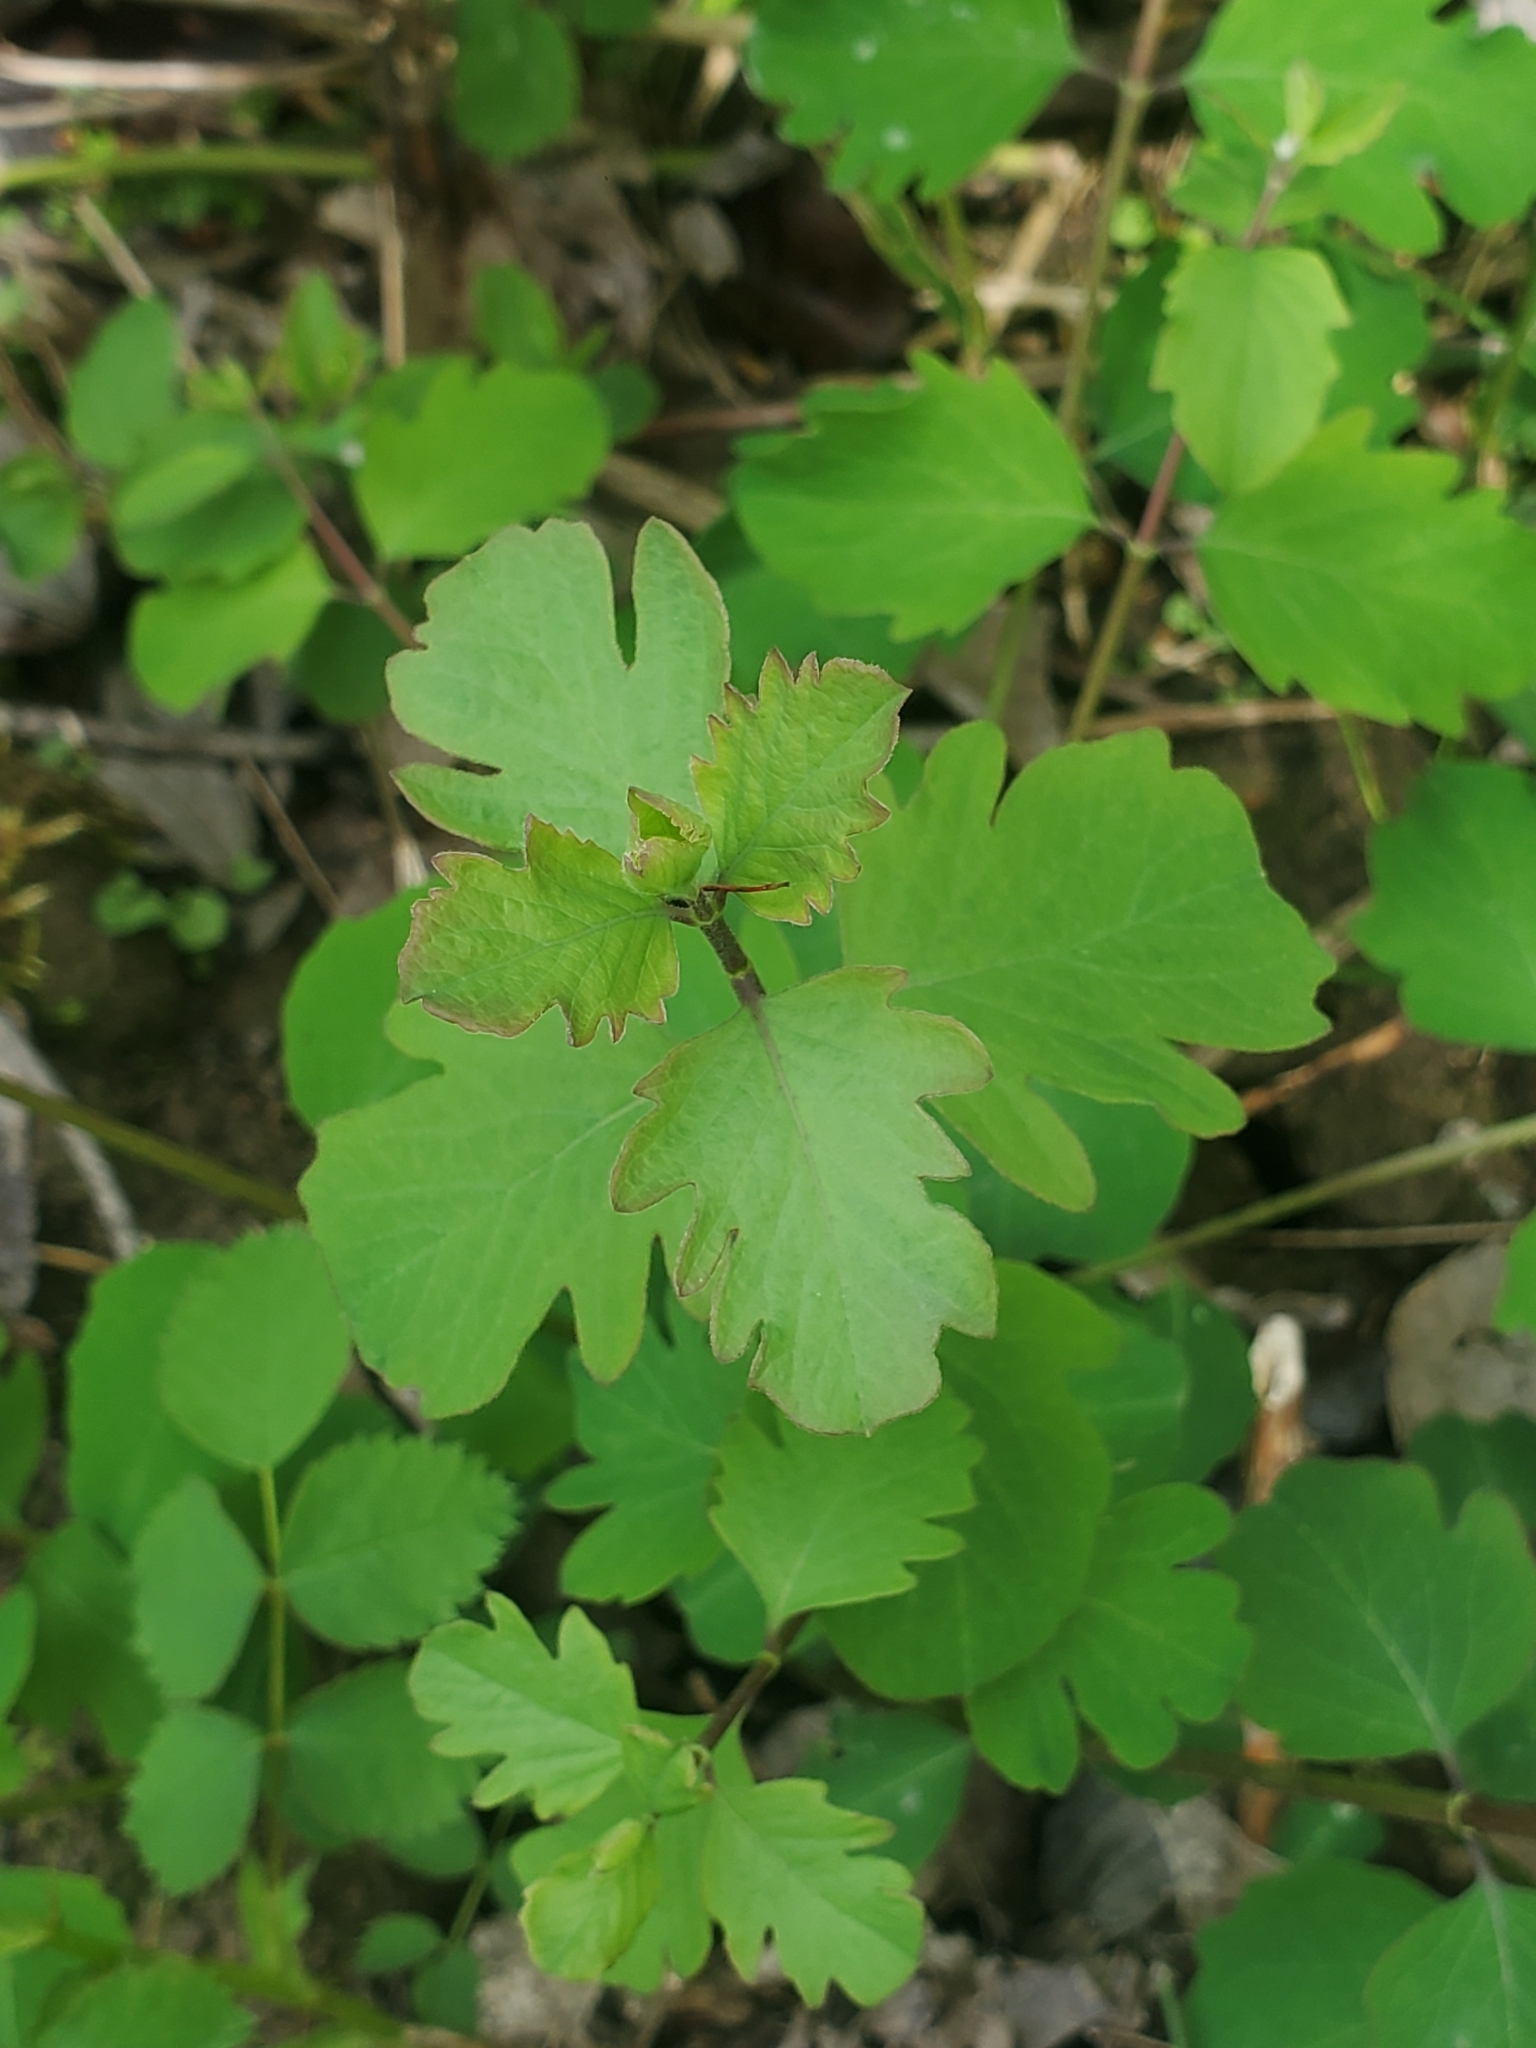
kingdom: Plantae
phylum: Tracheophyta
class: Magnoliopsida
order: Dipsacales
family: Caprifoliaceae
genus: Symphoricarpos
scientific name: Symphoricarpos albus
